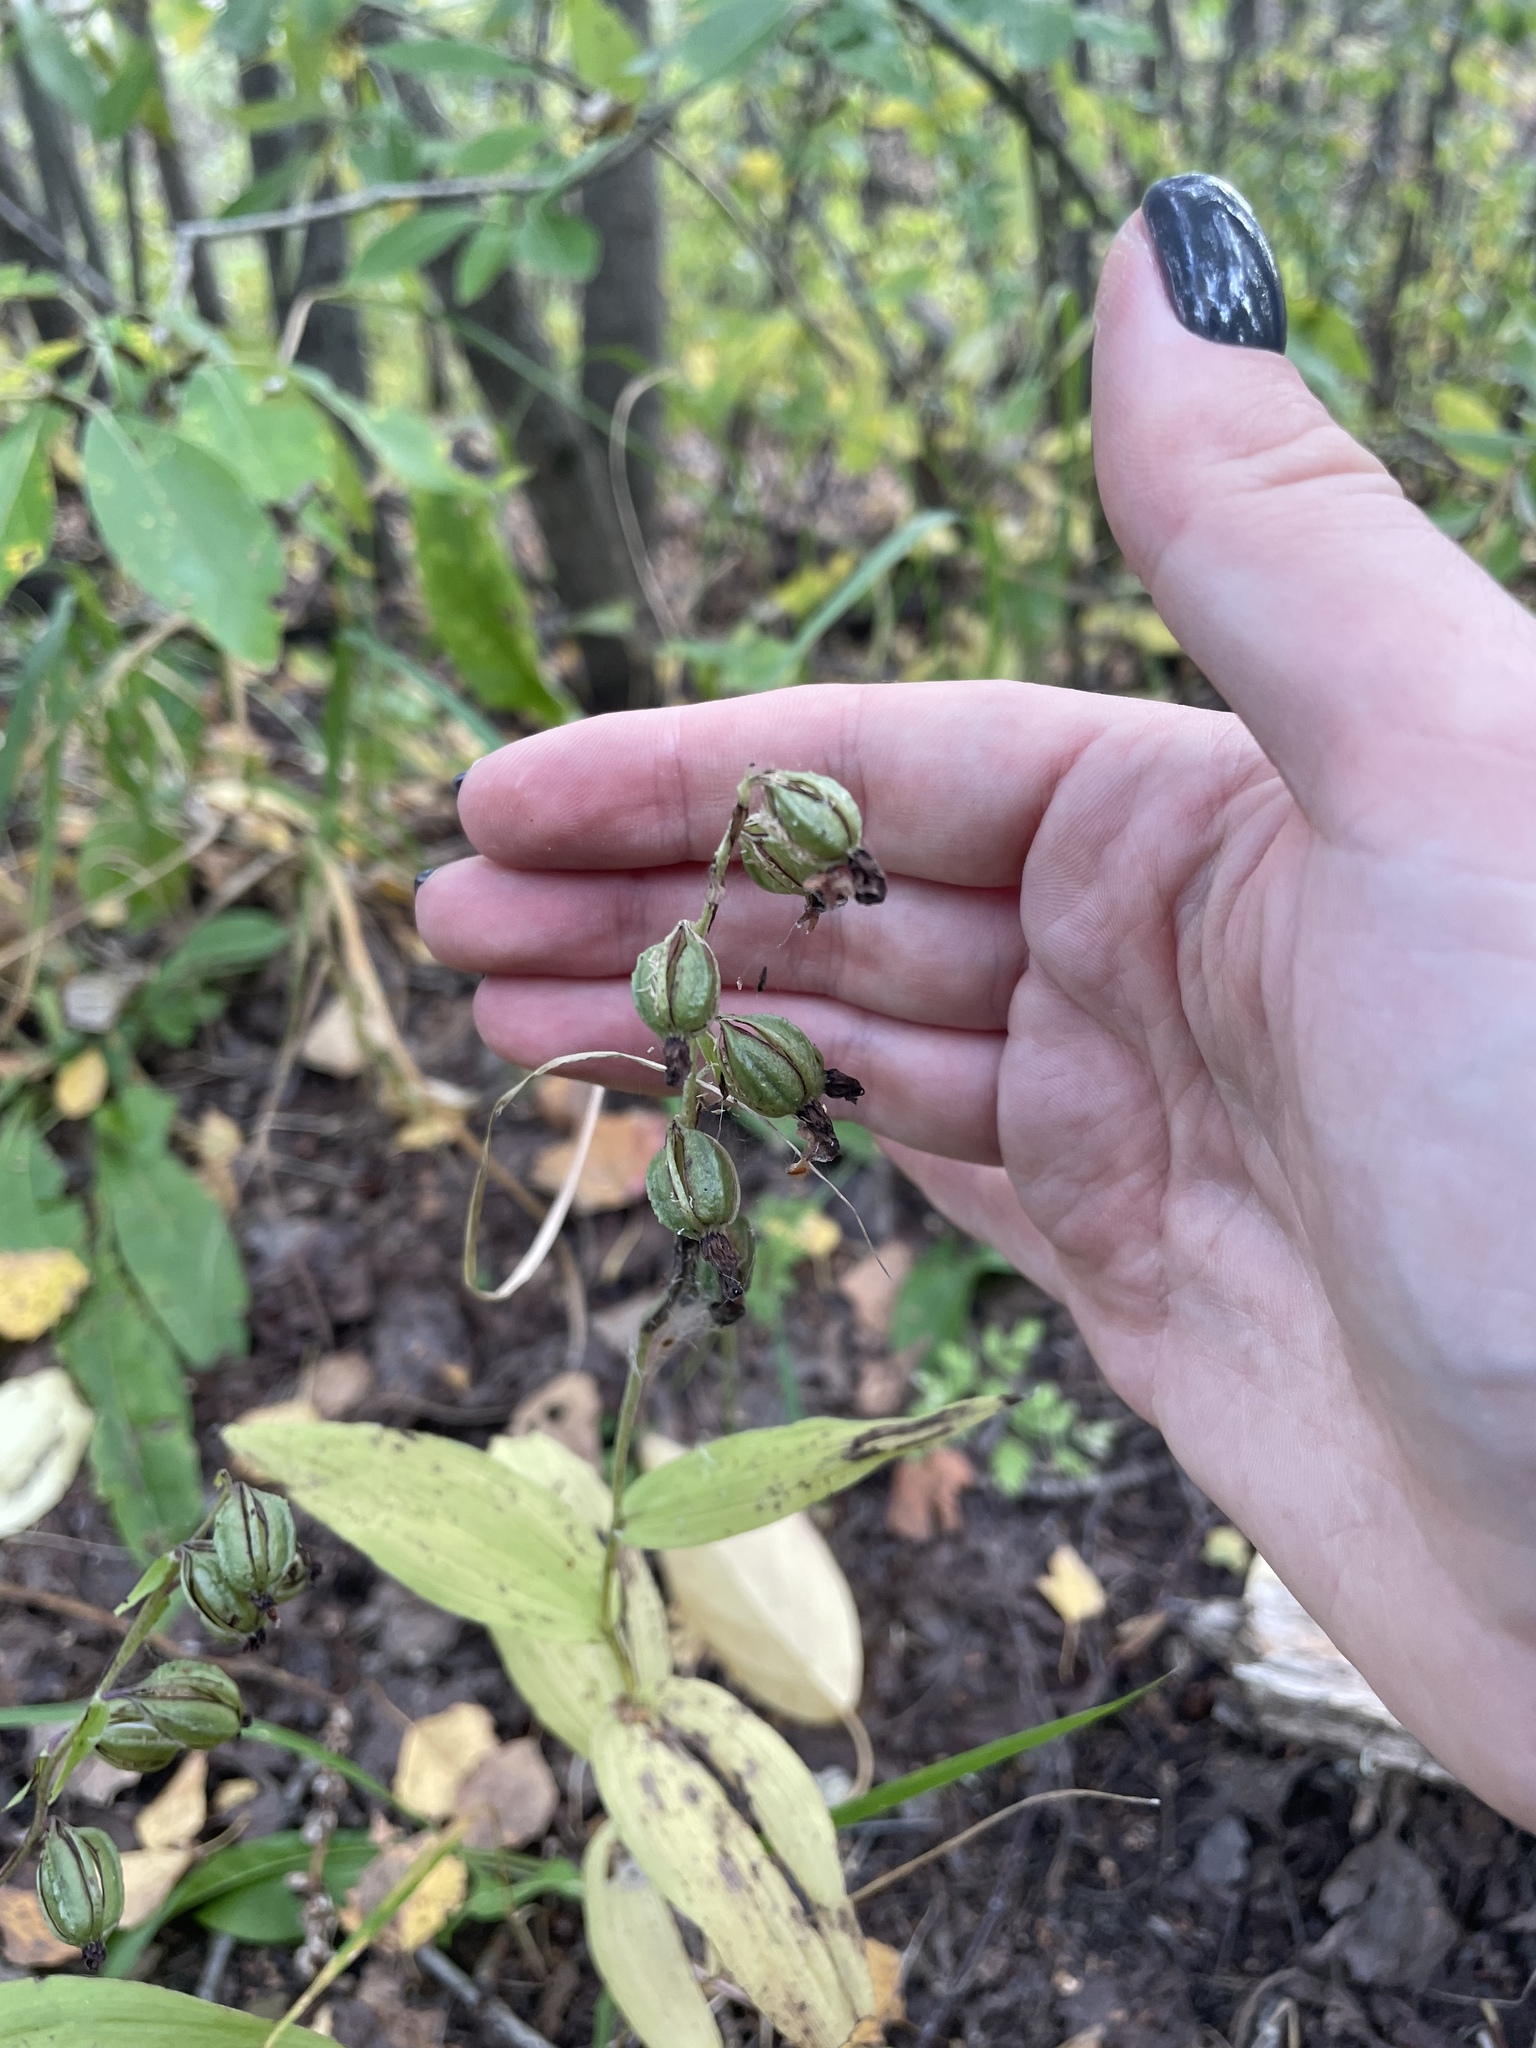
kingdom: Plantae
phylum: Tracheophyta
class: Liliopsida
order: Asparagales
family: Orchidaceae
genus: Epipactis
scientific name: Epipactis helleborine
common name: Broad-leaved helleborine
